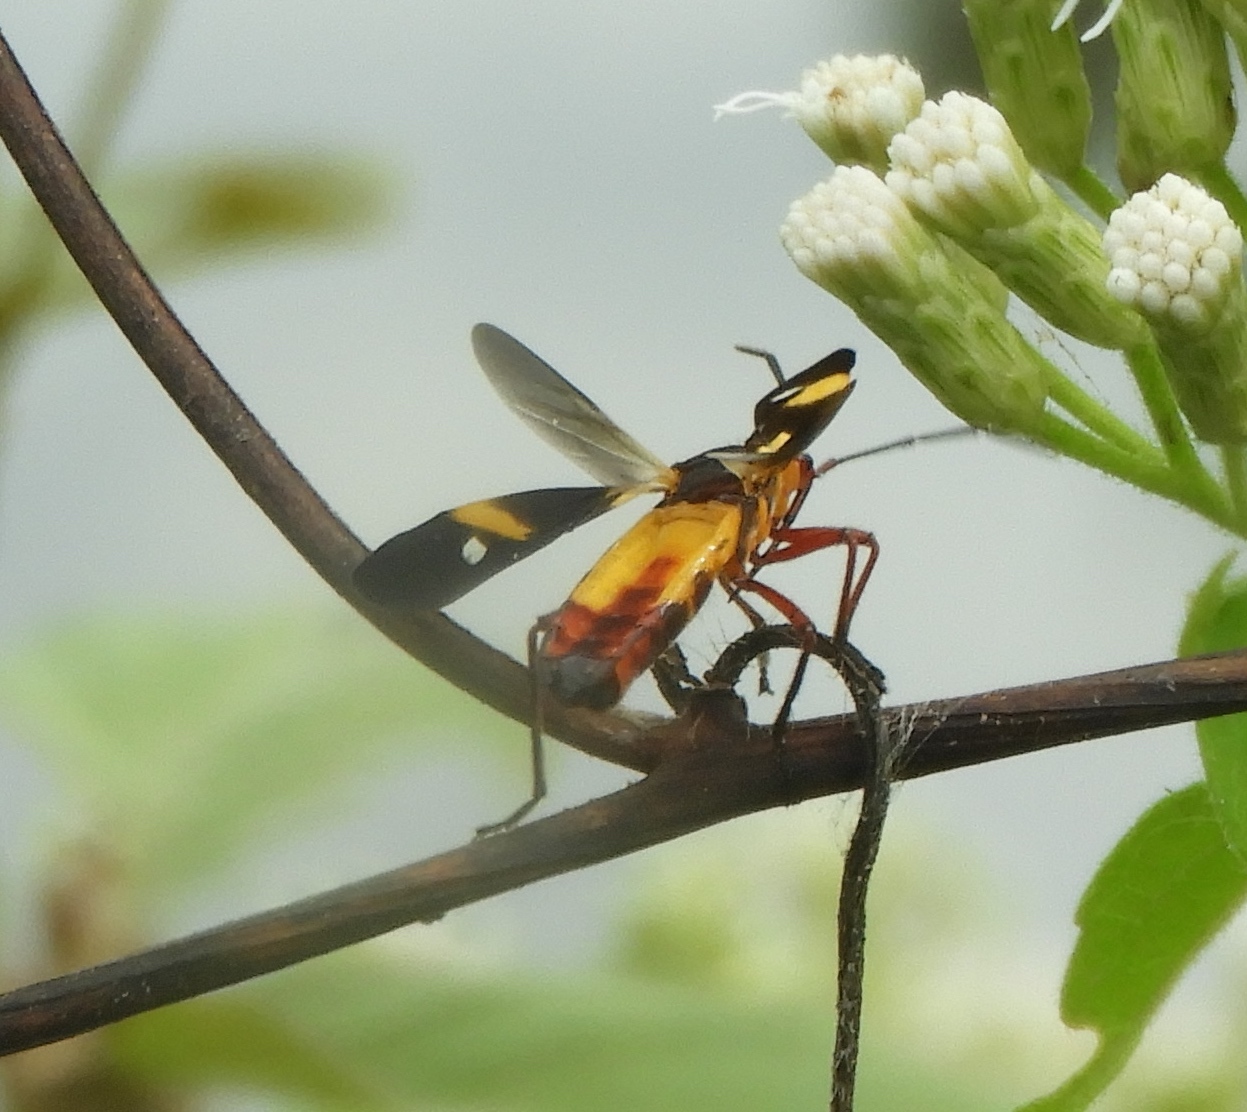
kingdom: Animalia
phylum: Arthropoda
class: Insecta
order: Hemiptera
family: Lygaeidae
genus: Oncopeltus
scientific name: Oncopeltus guttaloides
